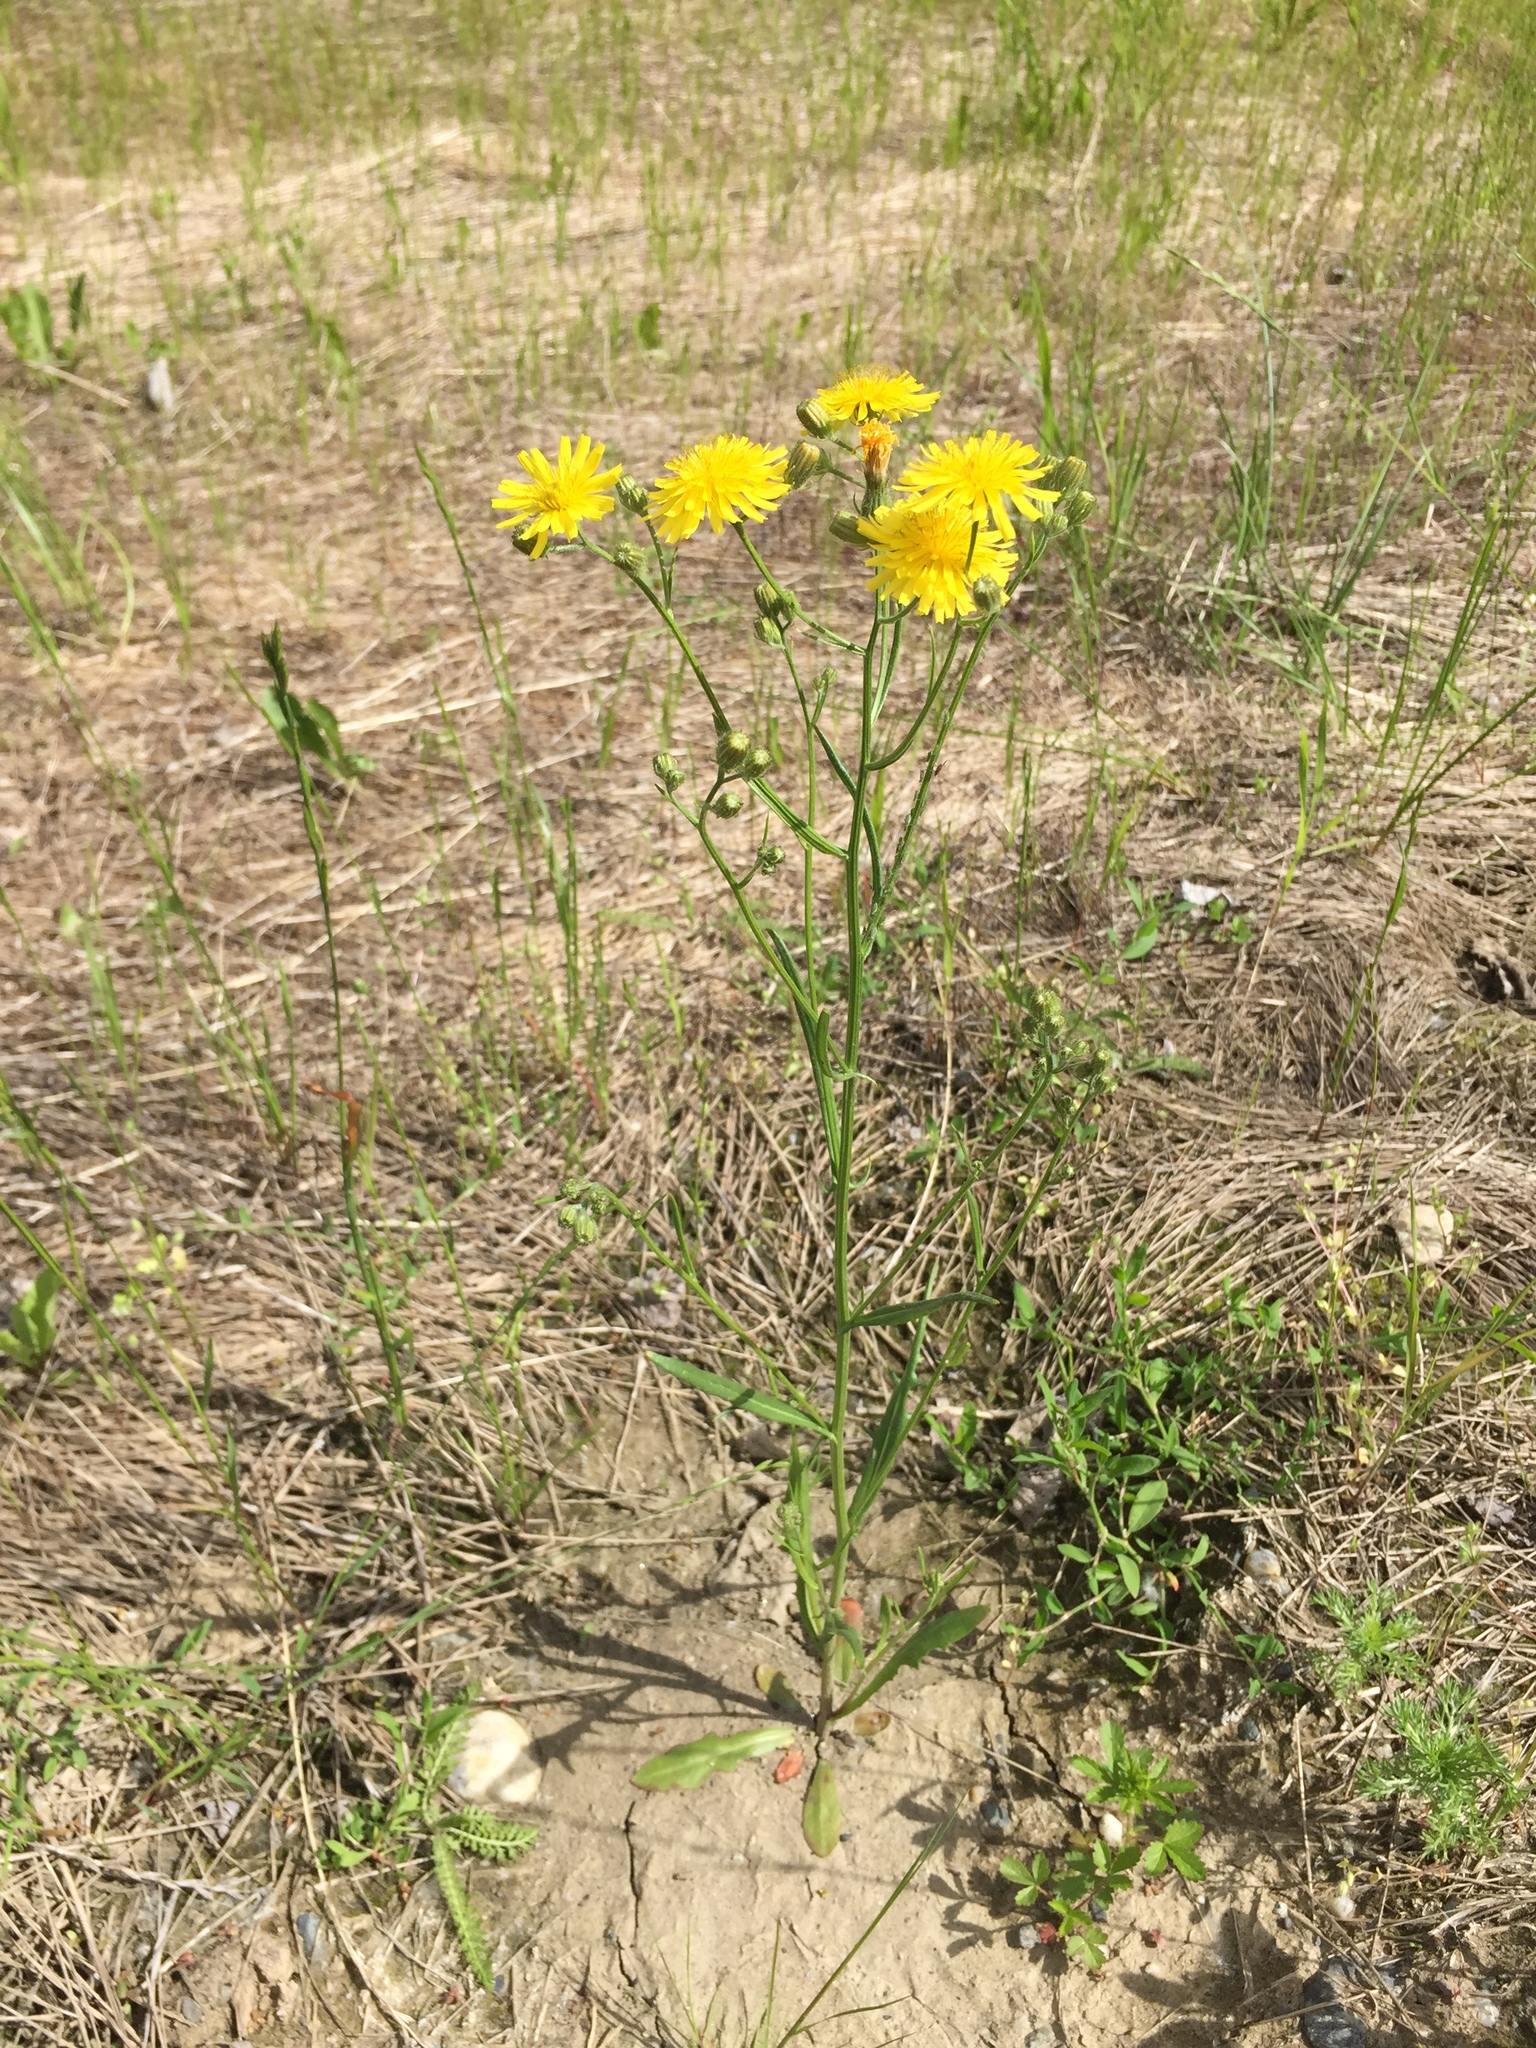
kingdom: Plantae
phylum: Tracheophyta
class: Magnoliopsida
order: Asterales
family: Asteraceae
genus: Crepis
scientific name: Crepis tectorum
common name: Narrow-leaved hawk's-beard
